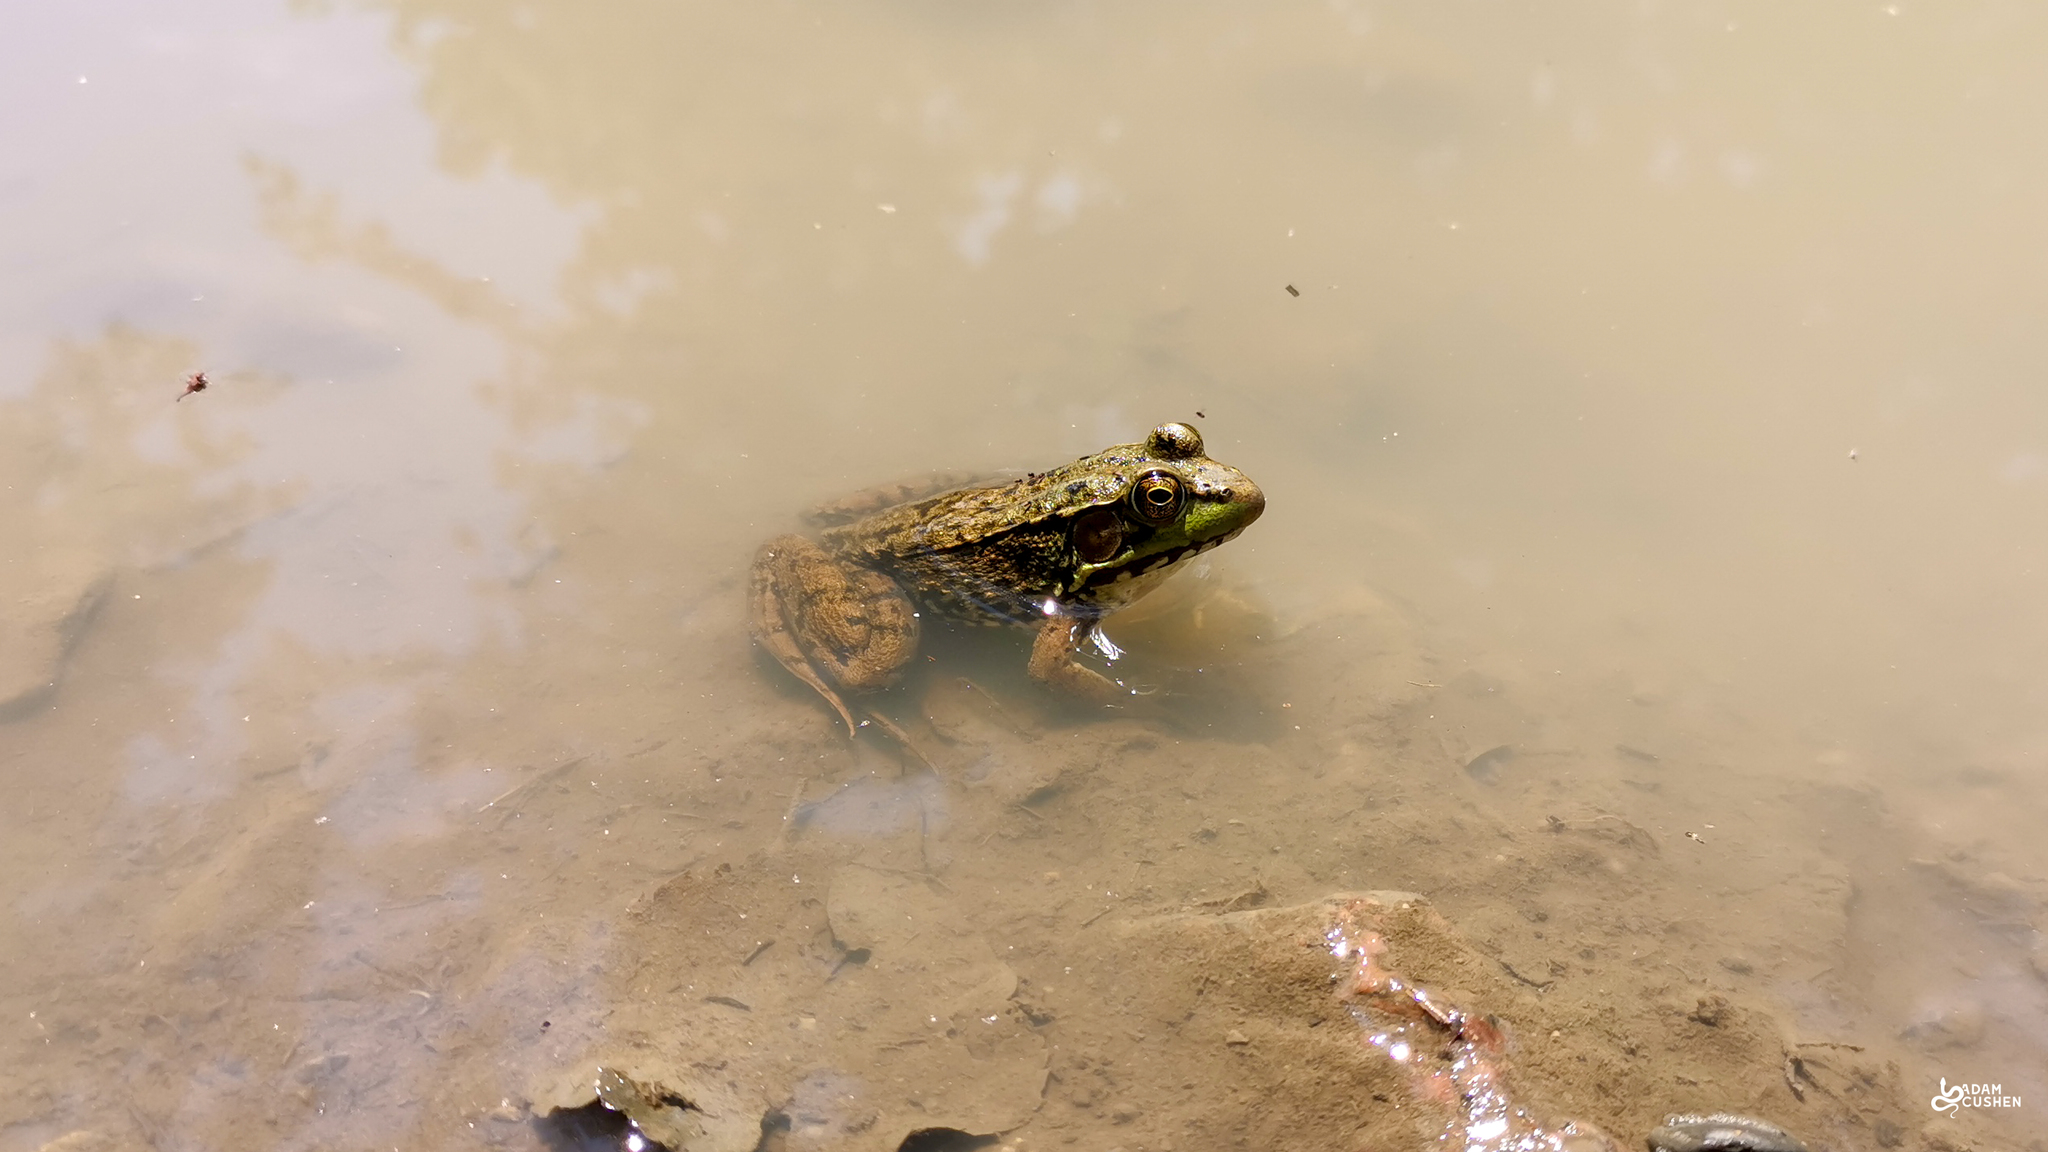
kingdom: Animalia
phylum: Chordata
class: Amphibia
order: Anura
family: Ranidae
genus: Lithobates
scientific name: Lithobates clamitans
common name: Green frog
